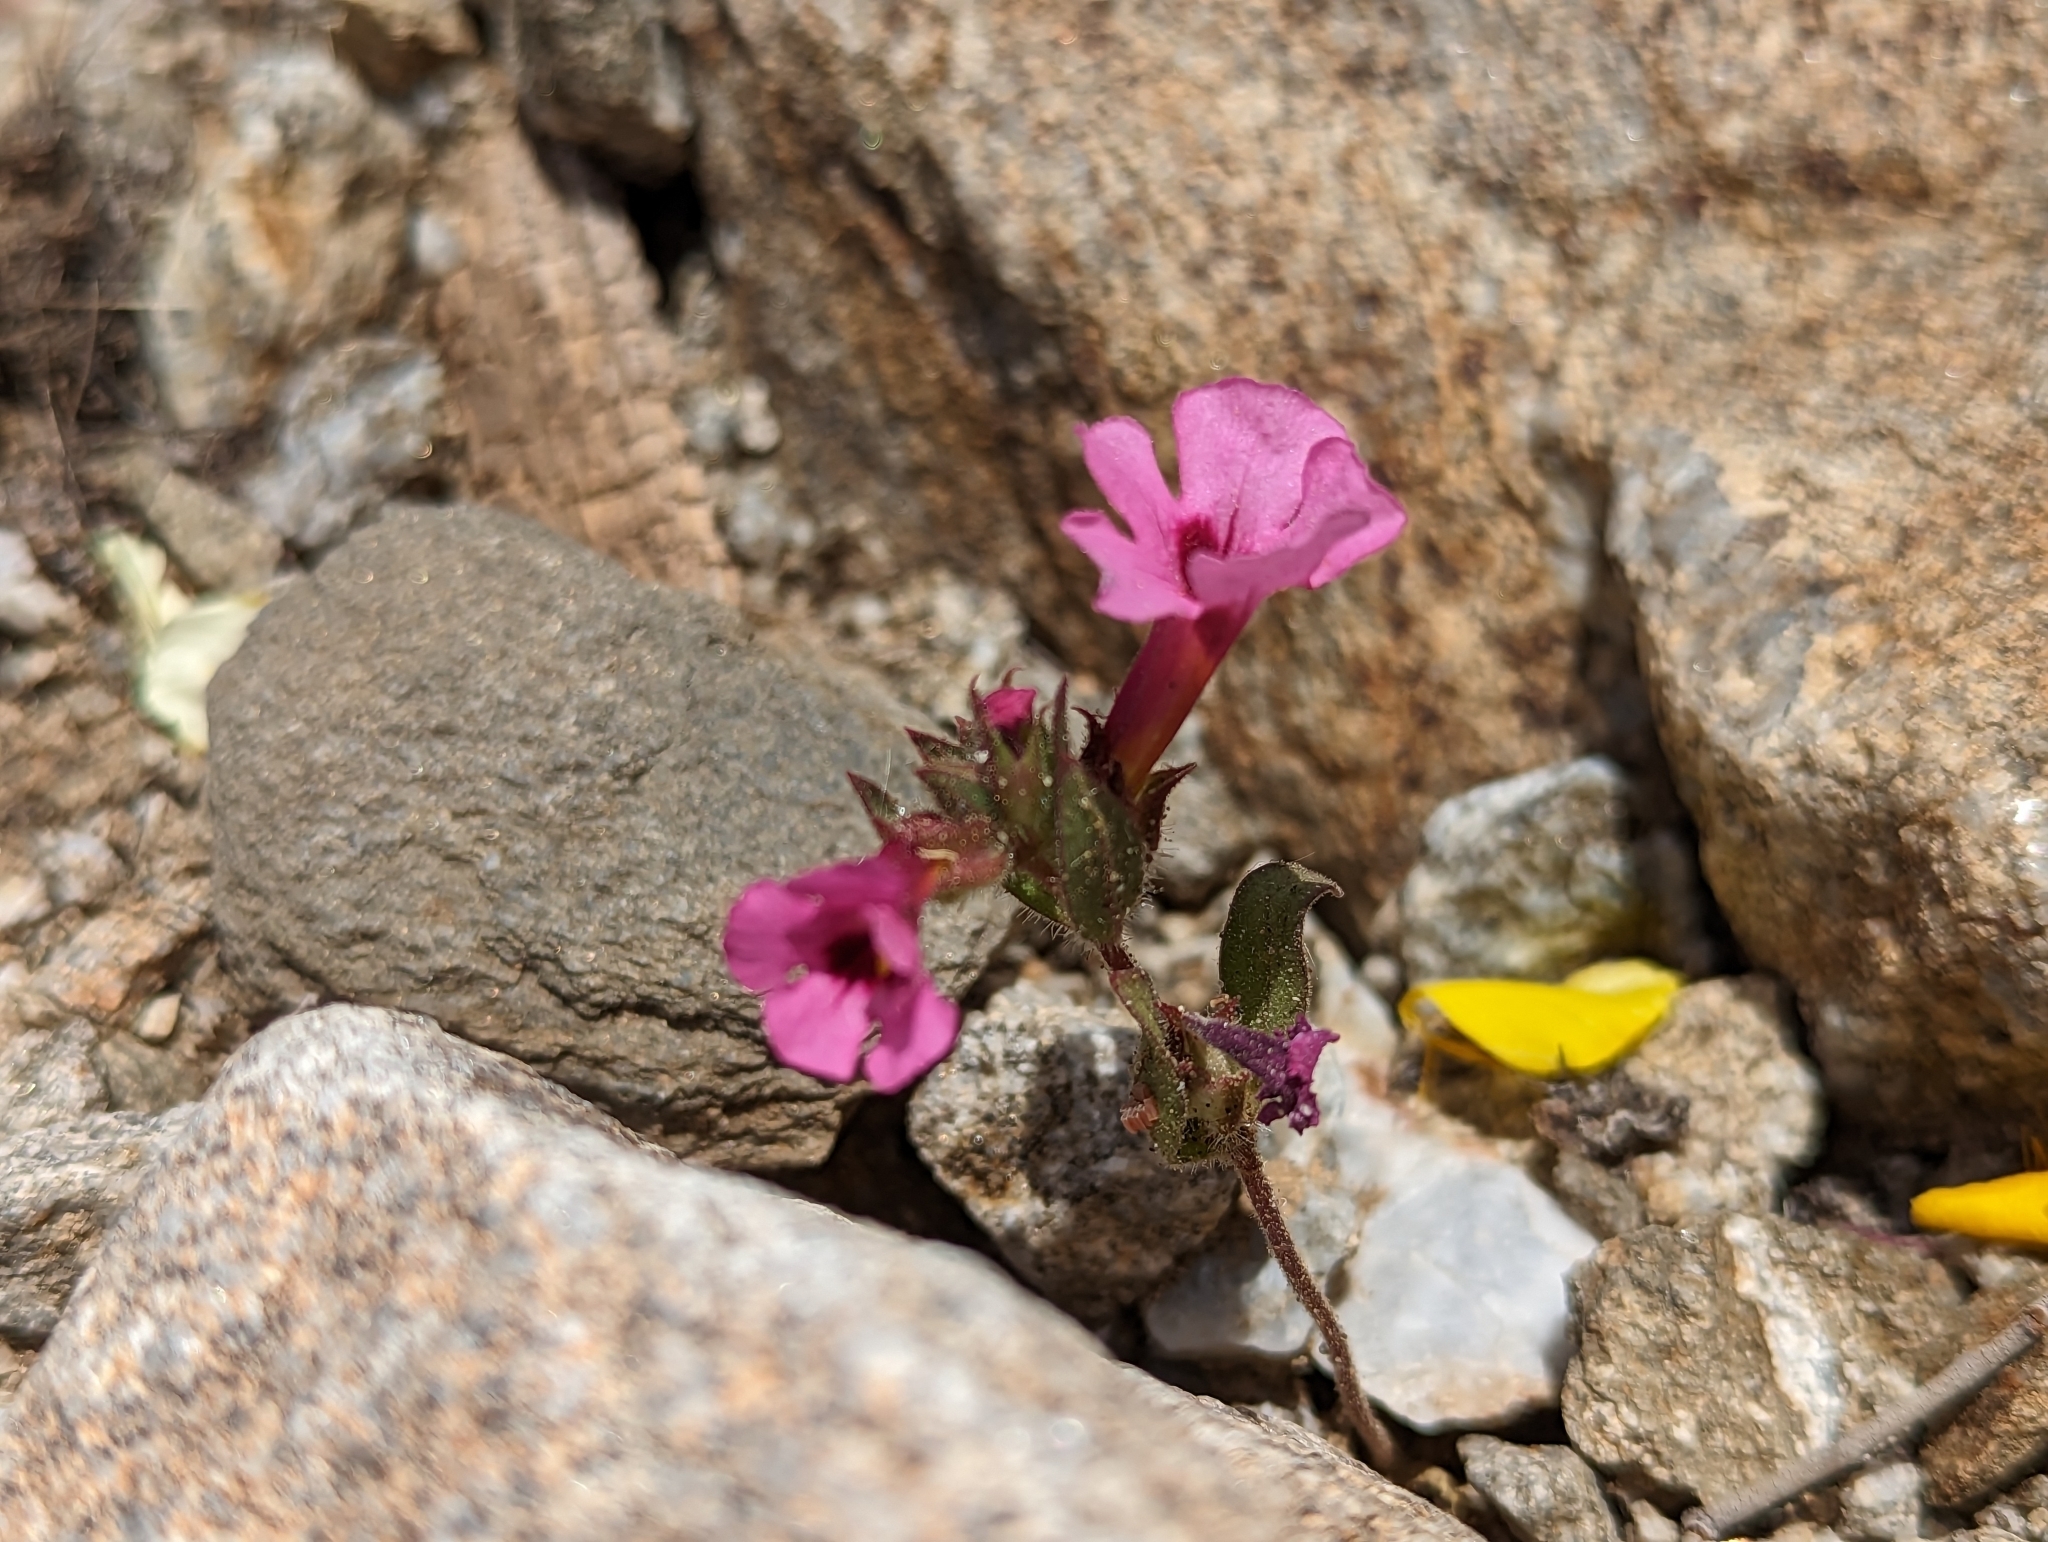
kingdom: Plantae
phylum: Tracheophyta
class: Magnoliopsida
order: Lamiales
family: Phrymaceae
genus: Diplacus
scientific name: Diplacus bigelovii
